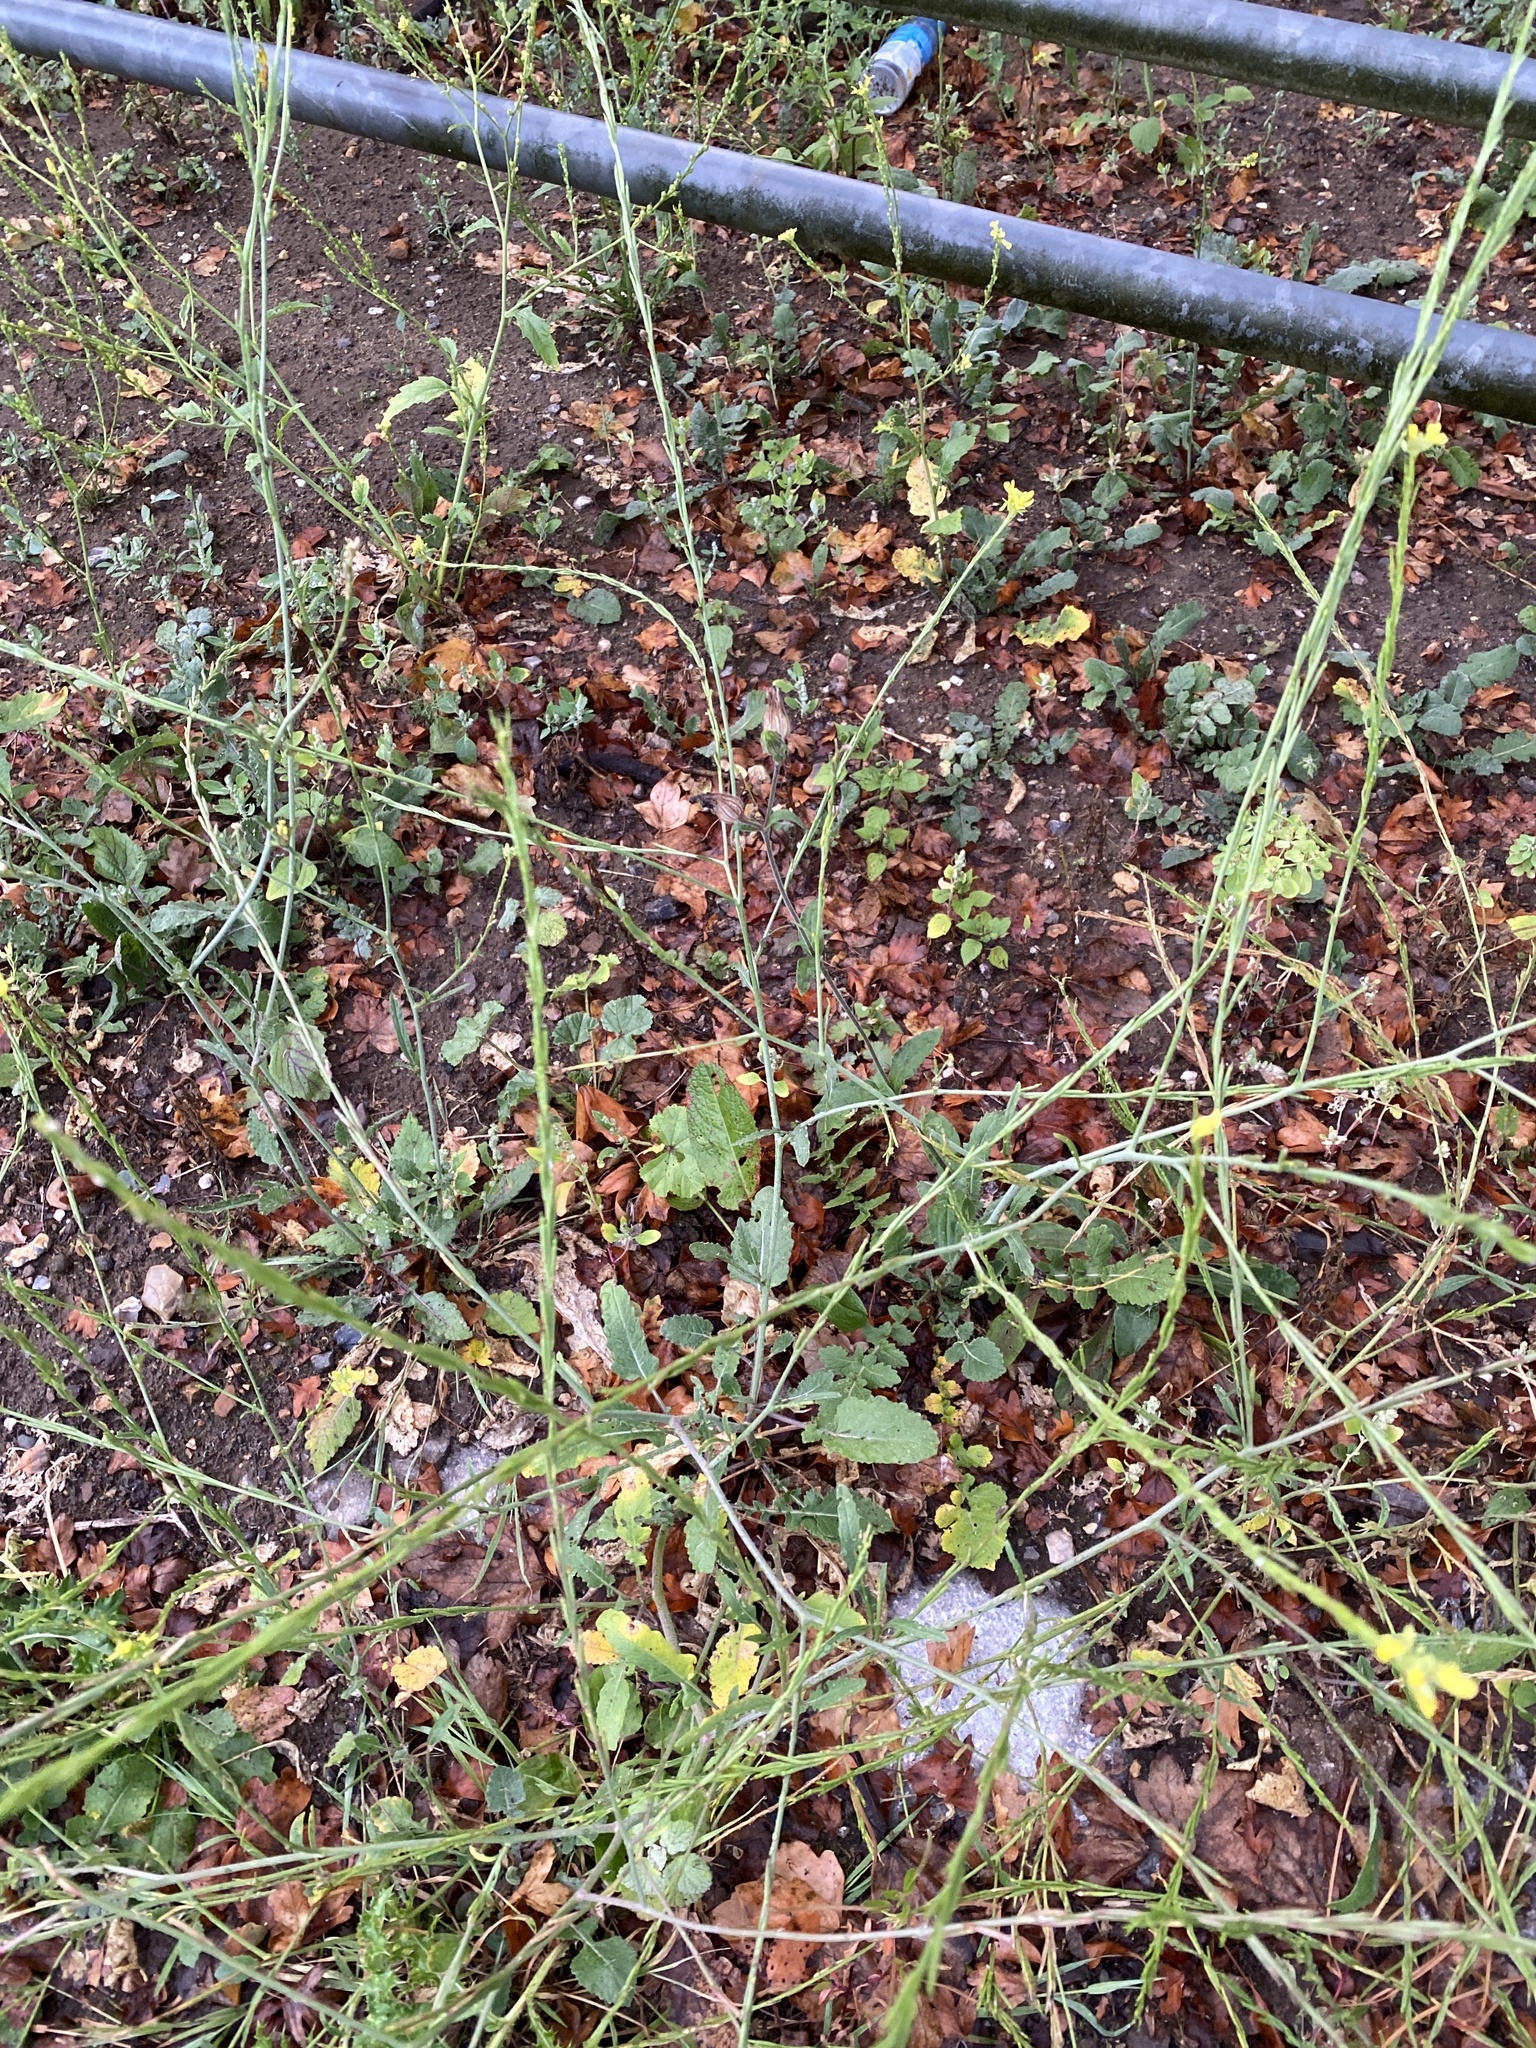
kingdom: Plantae
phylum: Tracheophyta
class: Magnoliopsida
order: Brassicales
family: Brassicaceae
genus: Hirschfeldia
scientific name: Hirschfeldia incana
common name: Hoary mustard
